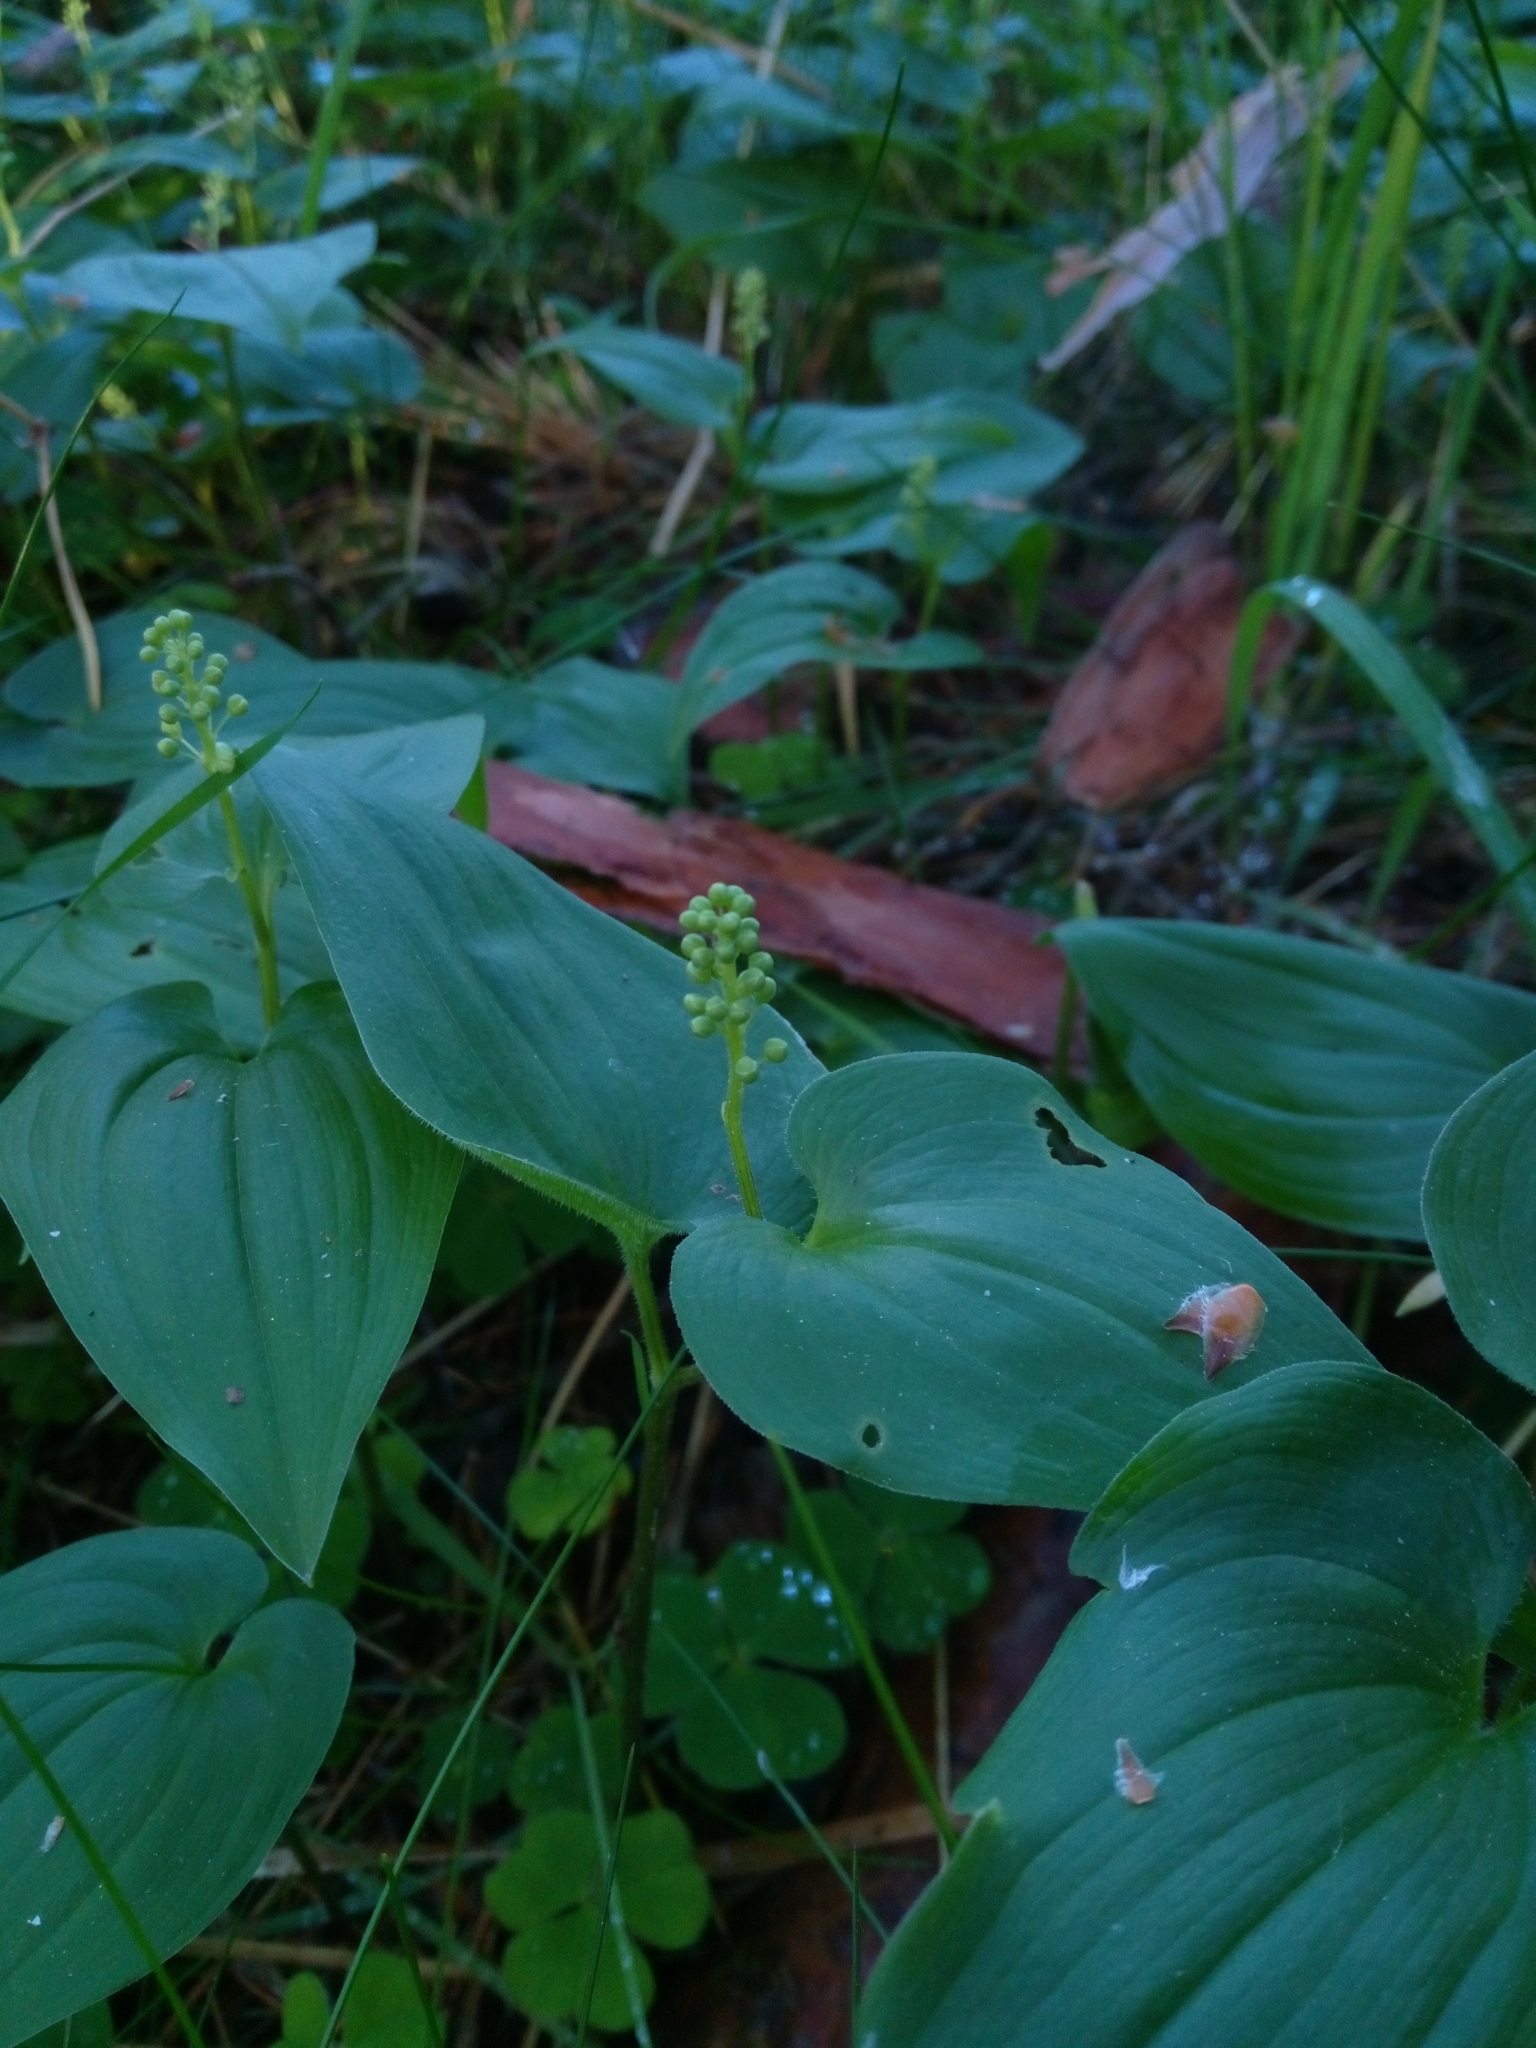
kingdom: Plantae
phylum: Tracheophyta
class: Liliopsida
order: Asparagales
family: Asparagaceae
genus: Maianthemum
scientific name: Maianthemum bifolium
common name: May lily
